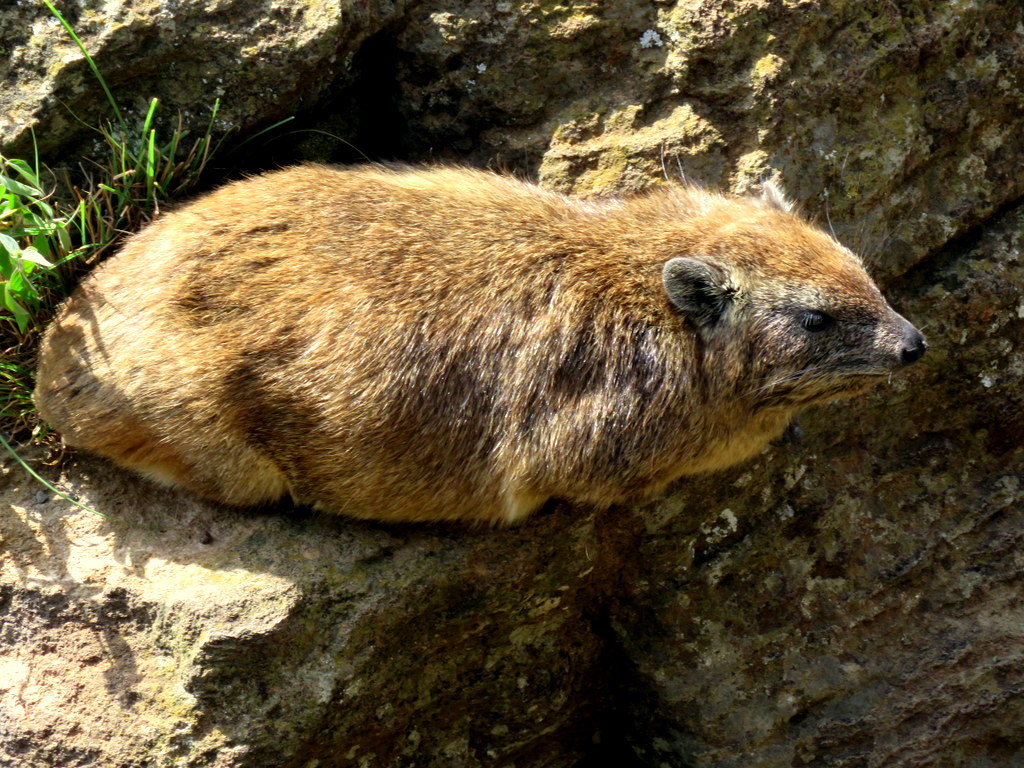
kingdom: Animalia
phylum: Chordata
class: Mammalia
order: Hyracoidea
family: Procaviidae
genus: Procavia
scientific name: Procavia capensis
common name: Rock hyrax
